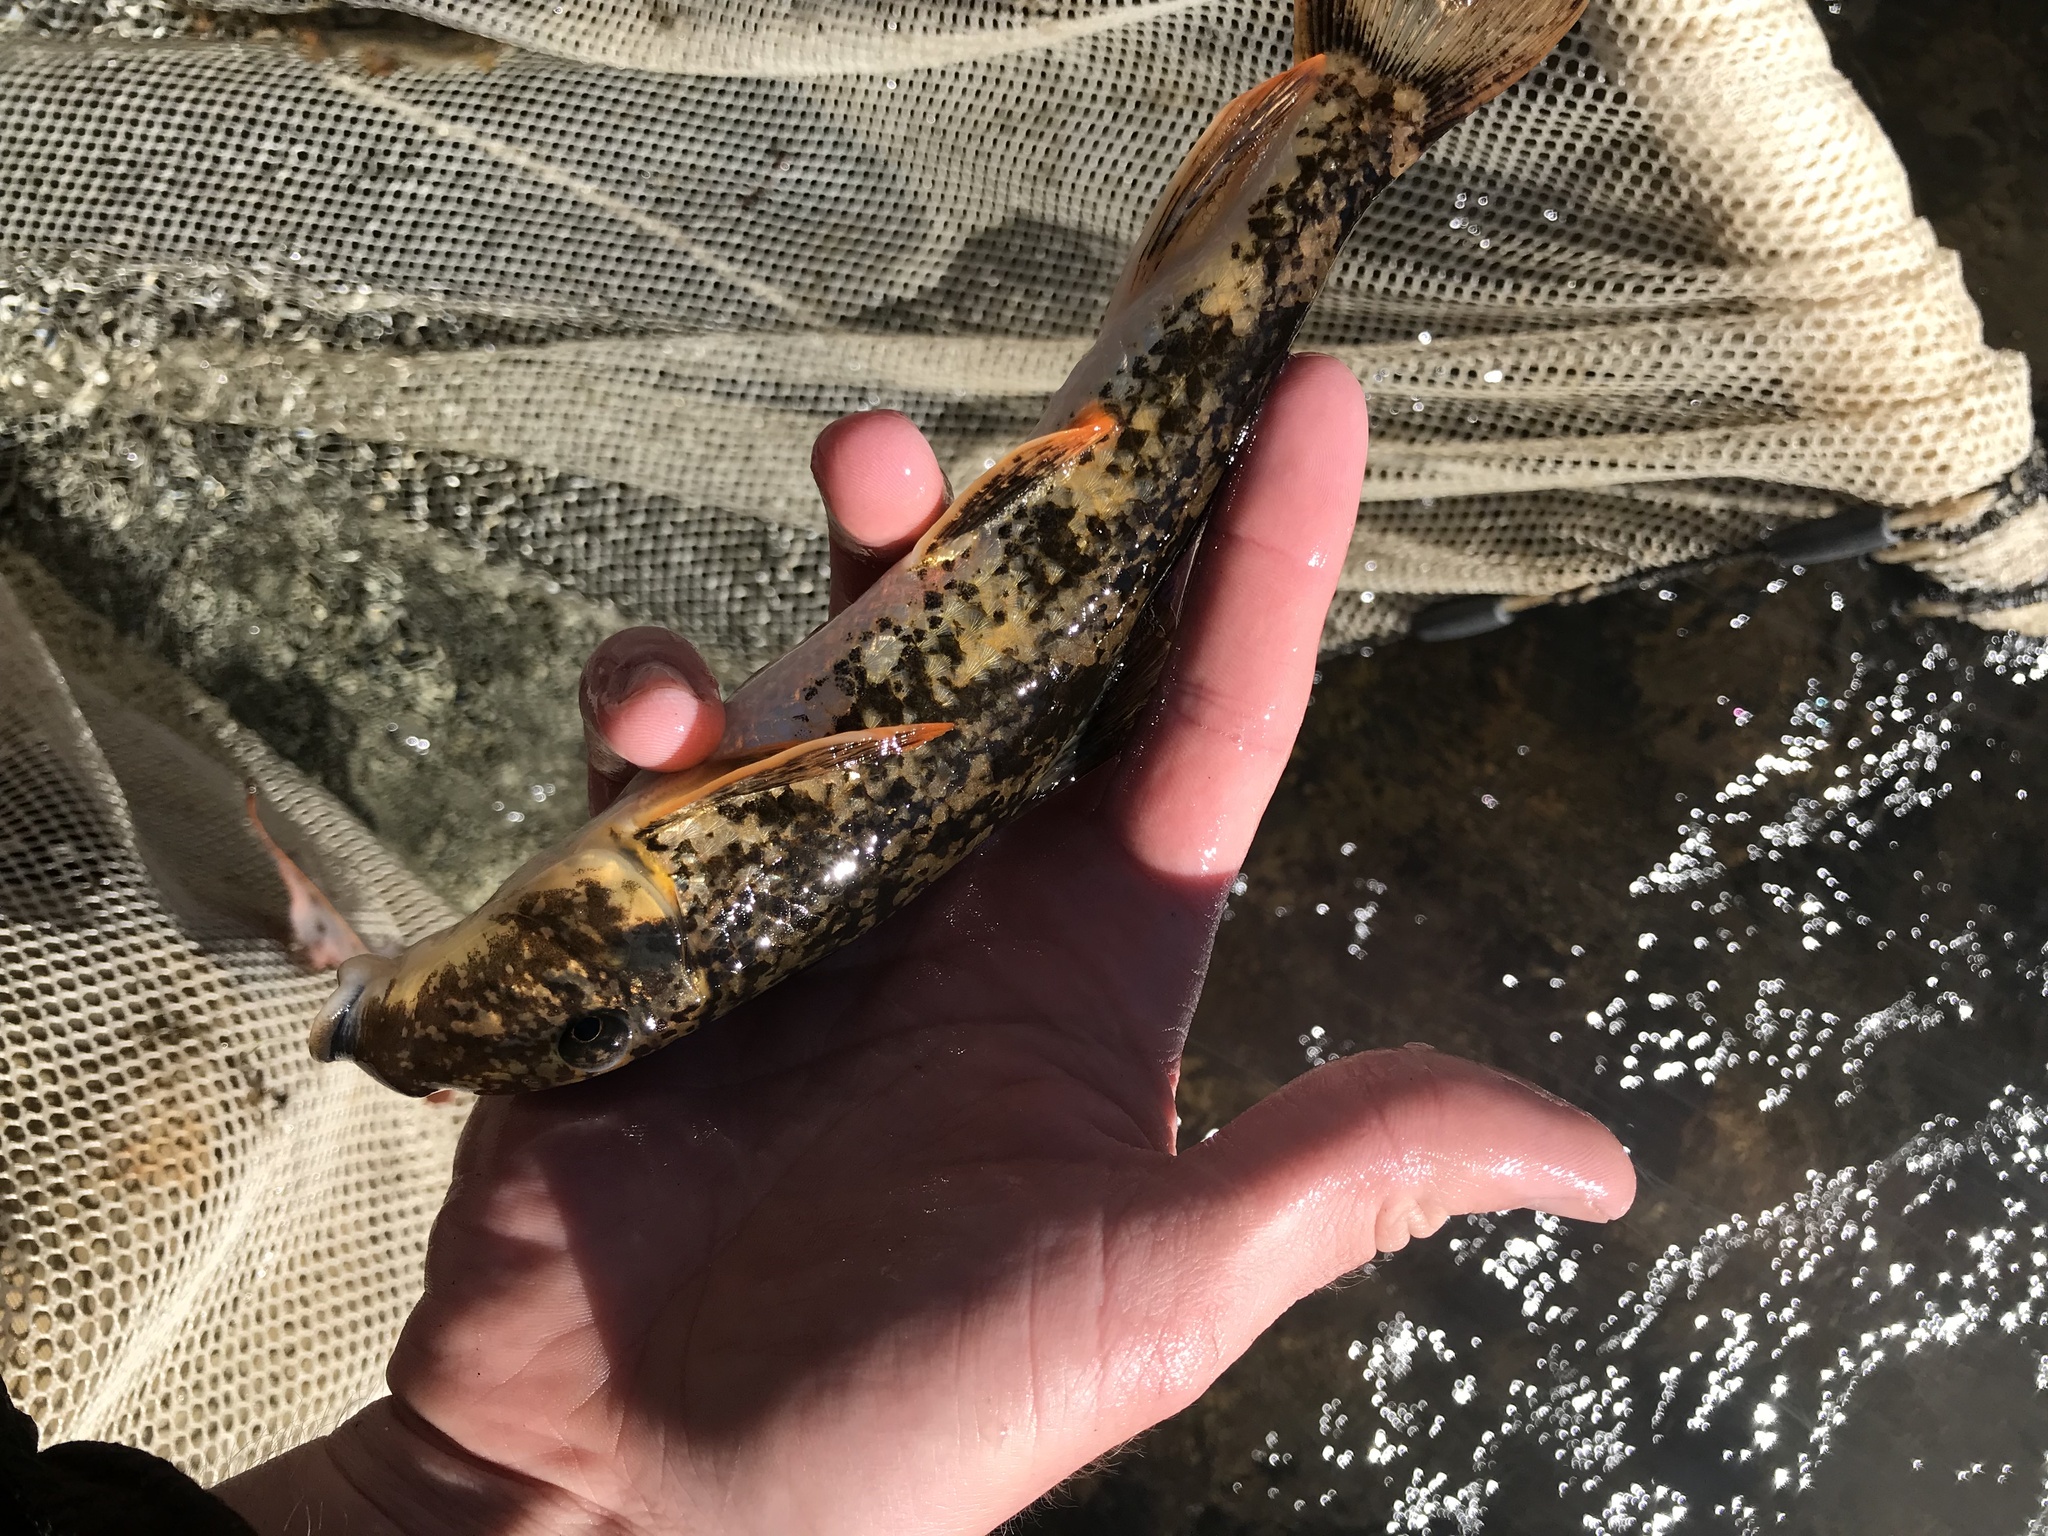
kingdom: Animalia
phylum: Chordata
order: Cypriniformes
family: Catostomidae
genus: Hypentelium
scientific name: Hypentelium nigricans
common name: Northern hog sucker
